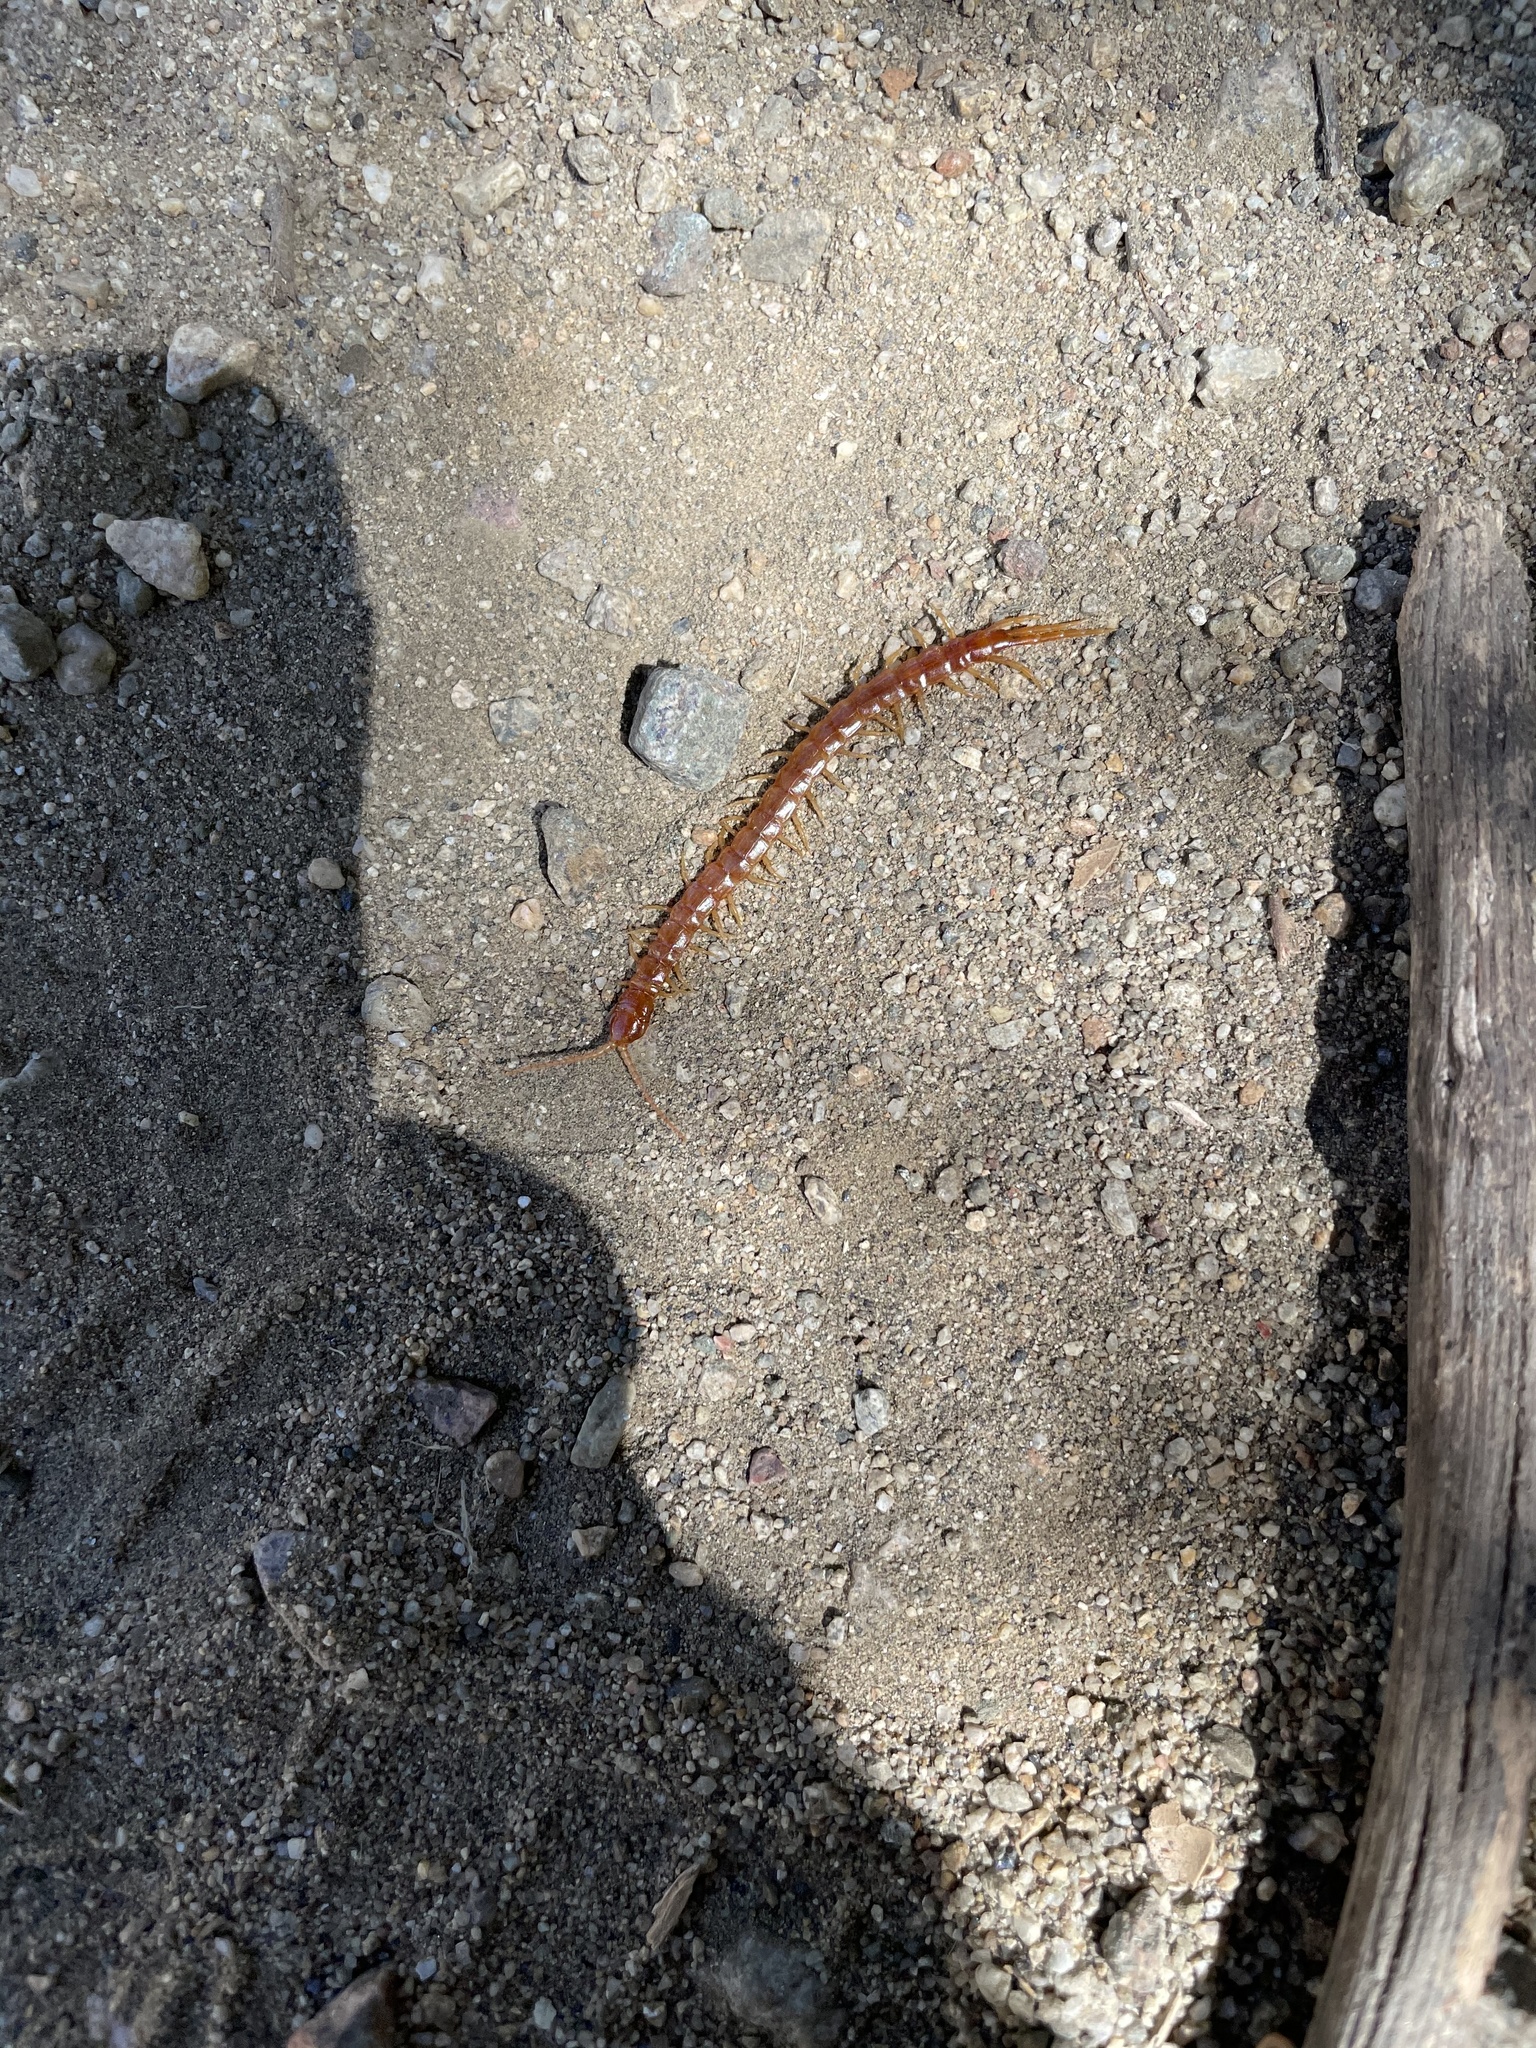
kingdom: Animalia
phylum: Arthropoda
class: Chilopoda
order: Scolopendromorpha
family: Scolopocryptopidae
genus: Scolopocryptops
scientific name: Scolopocryptops gracilis
